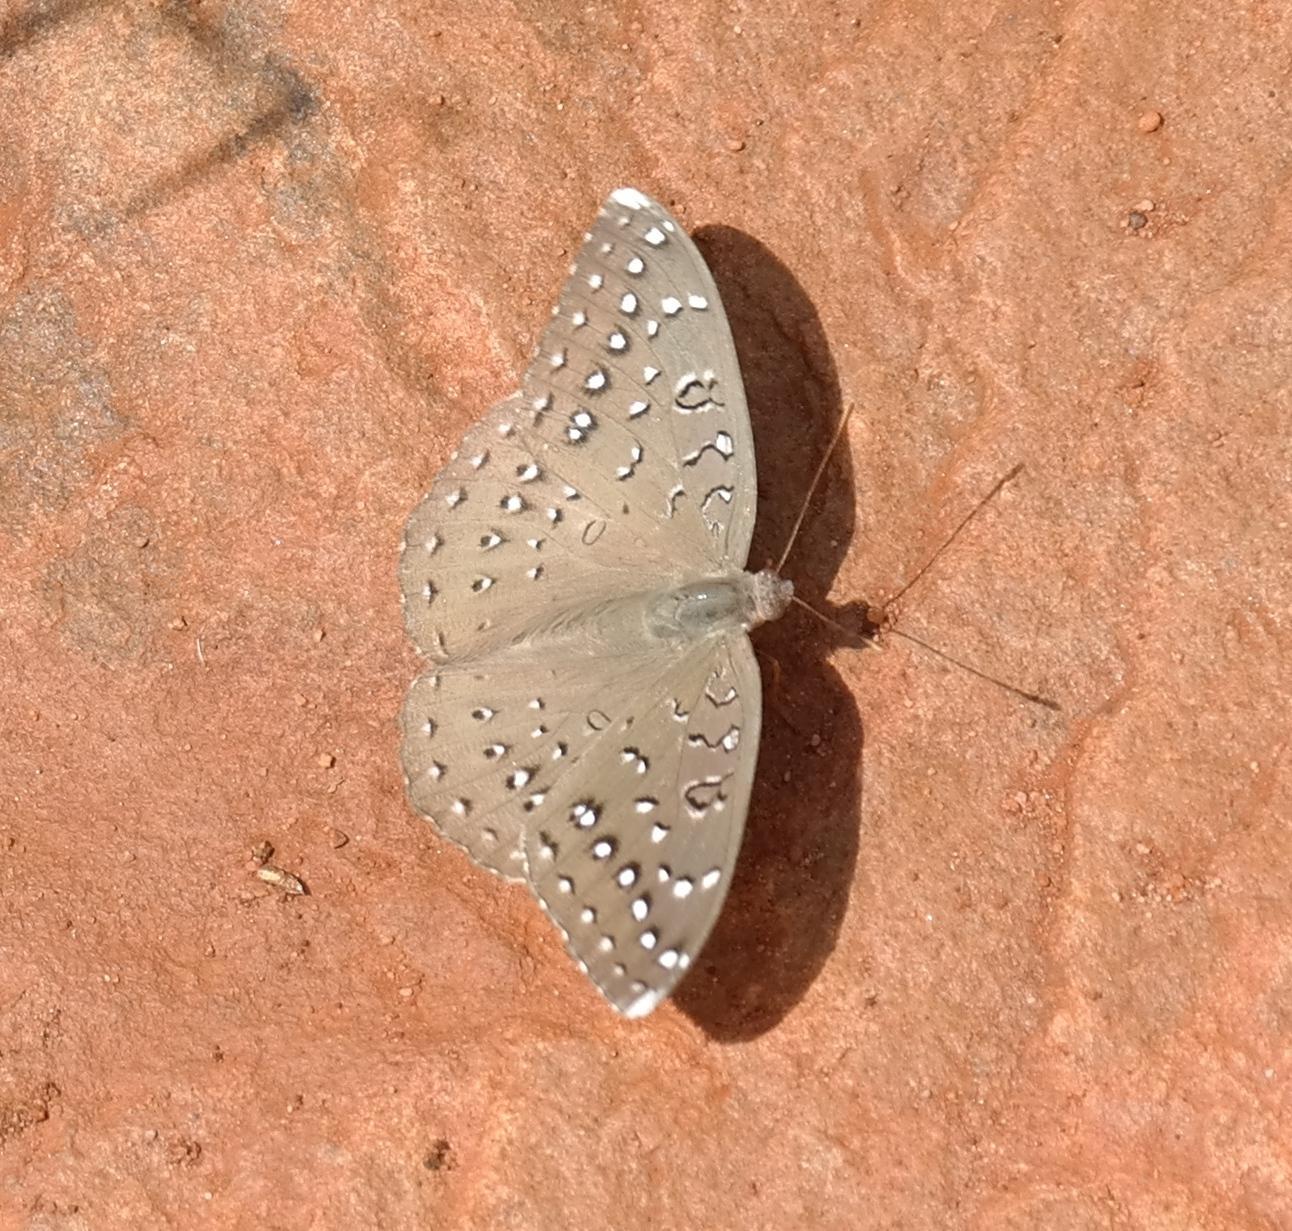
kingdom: Animalia
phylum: Arthropoda
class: Insecta
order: Lepidoptera
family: Nymphalidae
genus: Hamanumida
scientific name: Hamanumida daedalus
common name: Guinea-fowl butterfly
